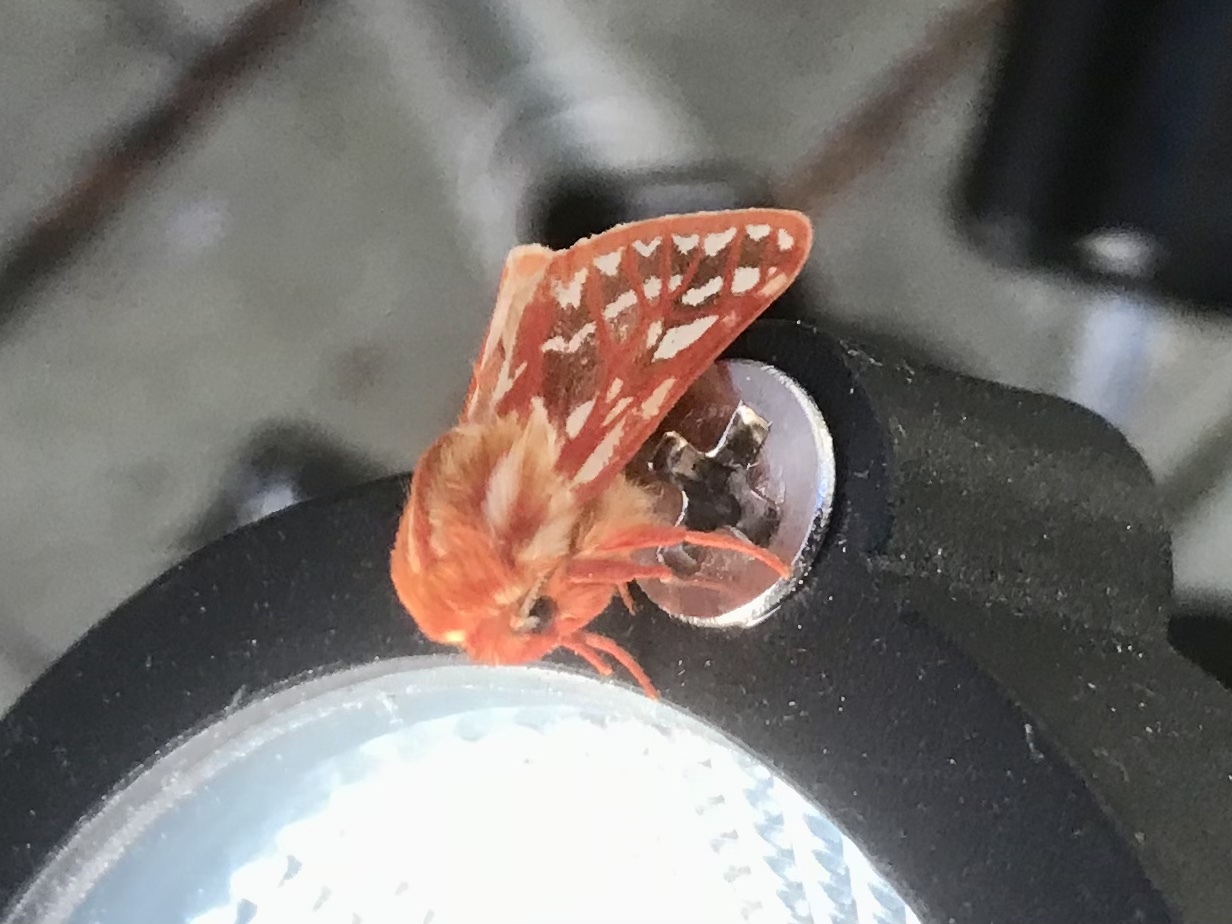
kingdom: Animalia
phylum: Arthropoda
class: Insecta
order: Lepidoptera
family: Erebidae
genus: Lophocampa
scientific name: Lophocampa roseata
